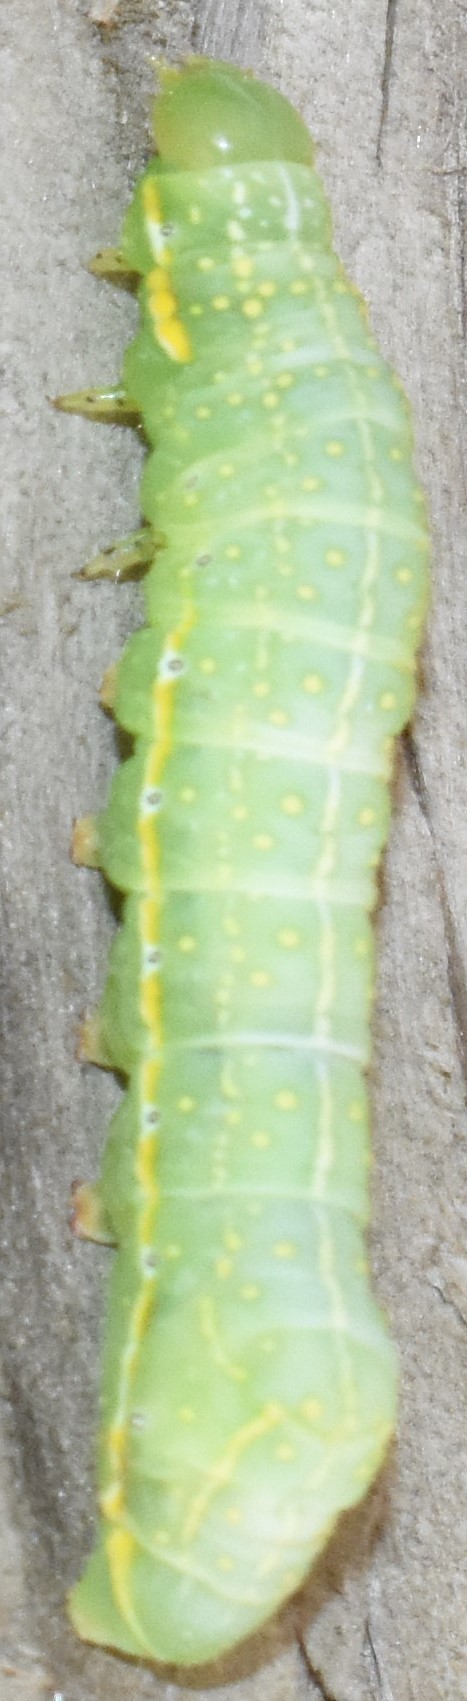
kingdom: Animalia
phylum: Arthropoda
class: Insecta
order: Lepidoptera
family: Noctuidae
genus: Amphipyra
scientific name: Amphipyra pyramidoides
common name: American copper underwing
